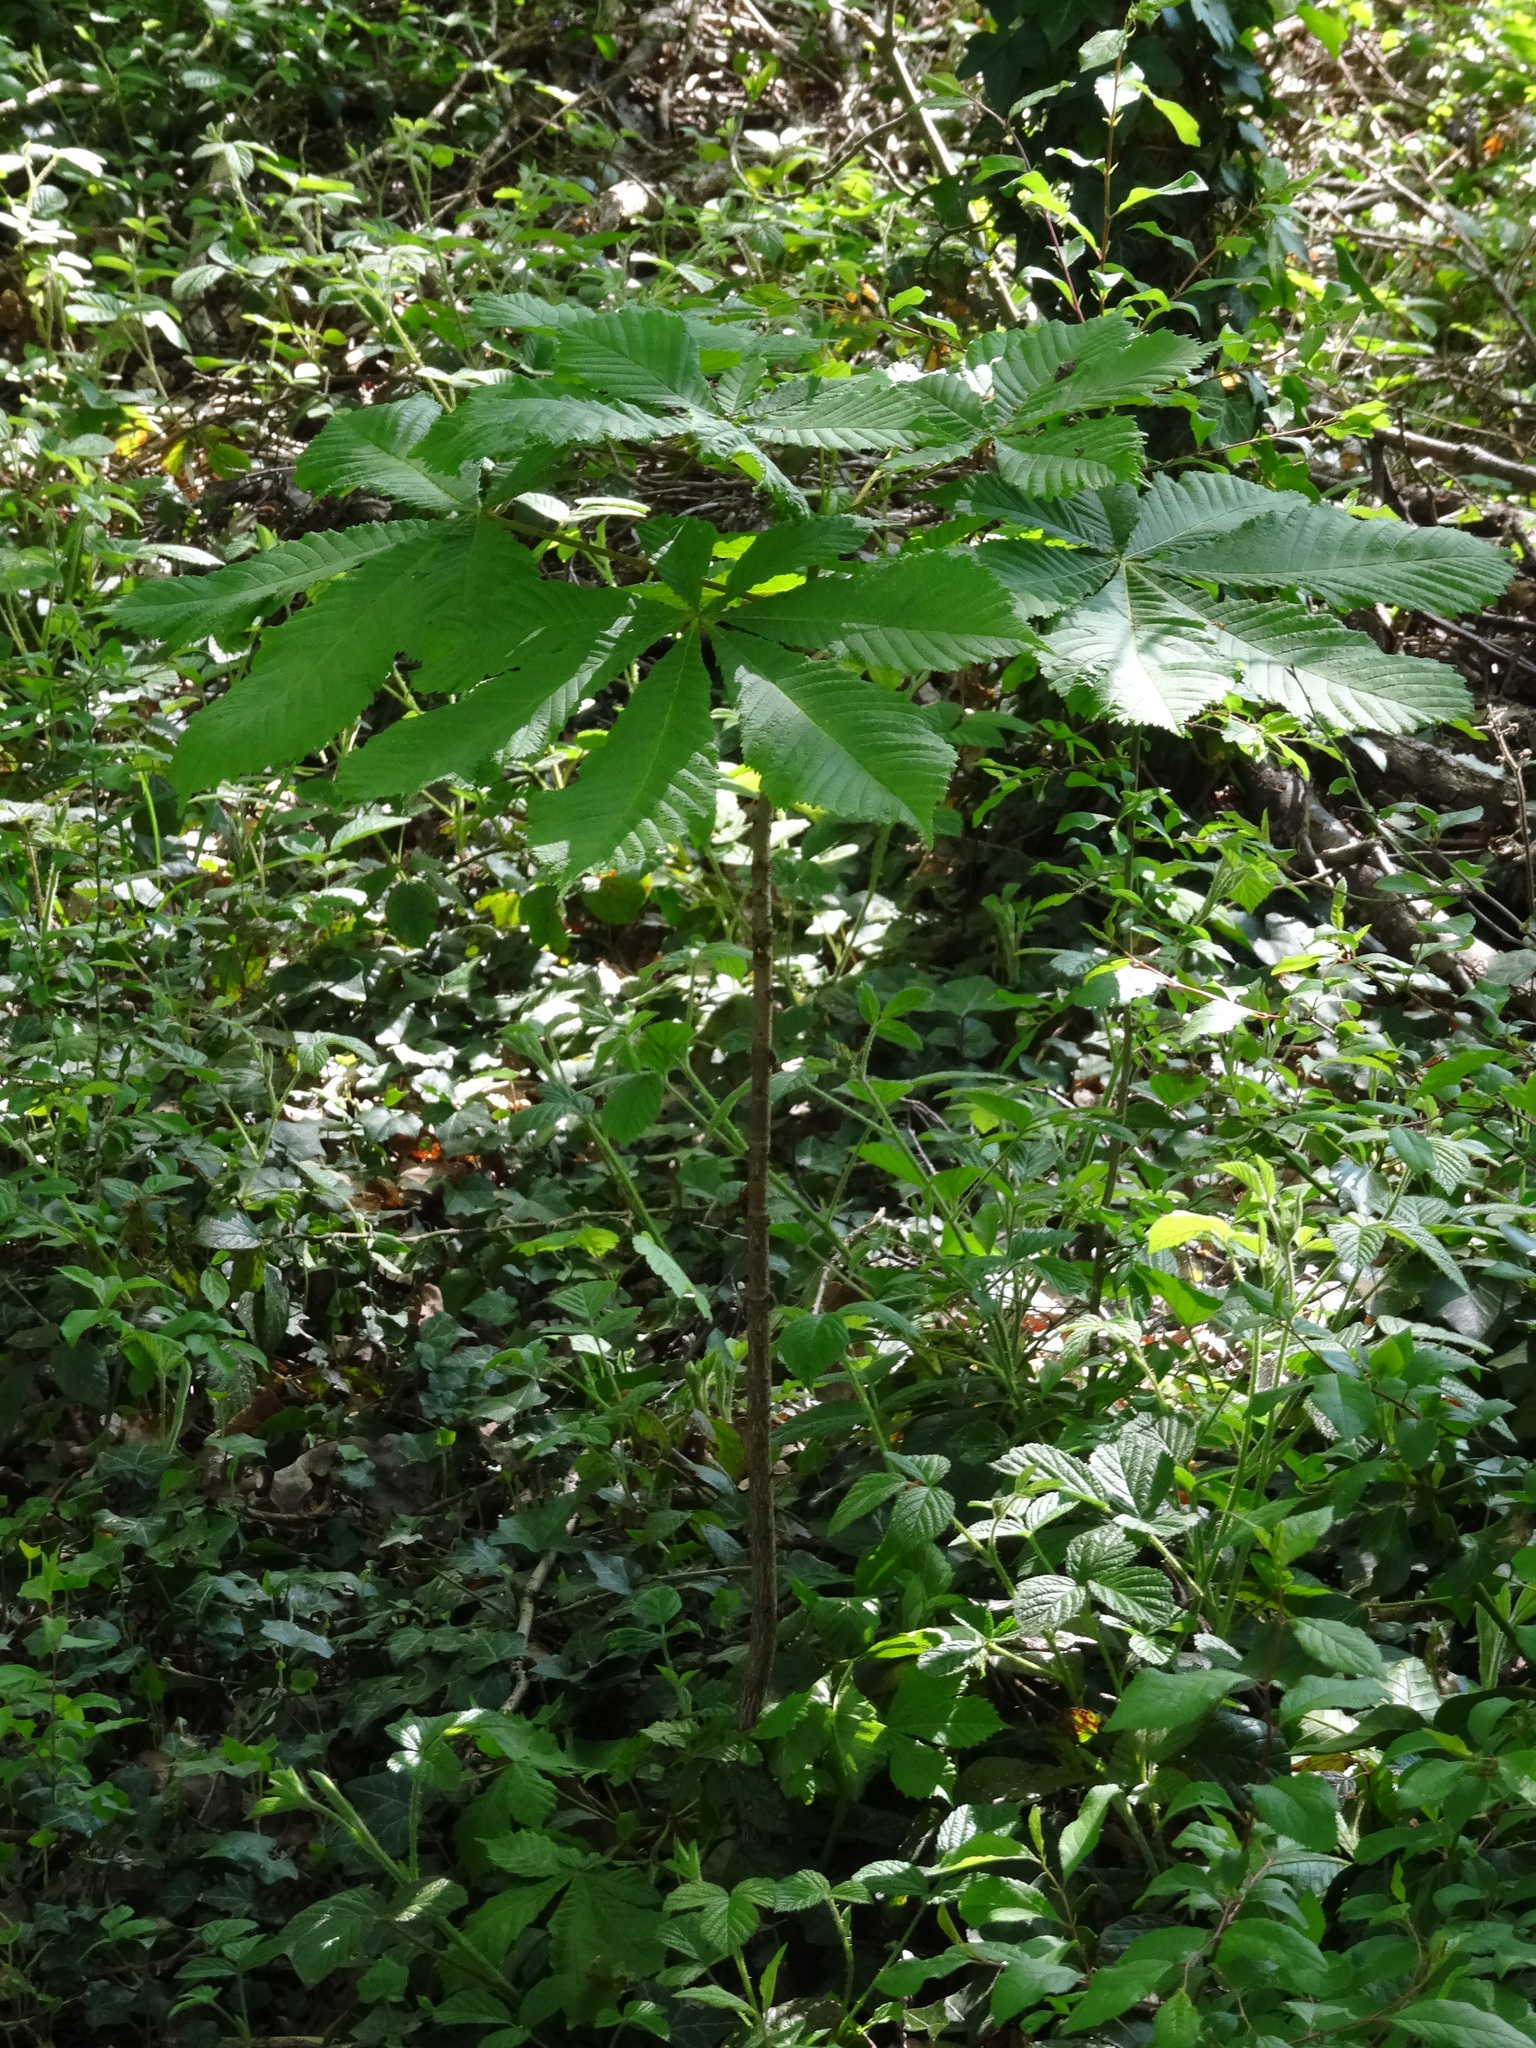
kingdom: Plantae
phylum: Tracheophyta
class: Magnoliopsida
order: Sapindales
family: Sapindaceae
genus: Aesculus
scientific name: Aesculus hippocastanum
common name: Horse-chestnut
